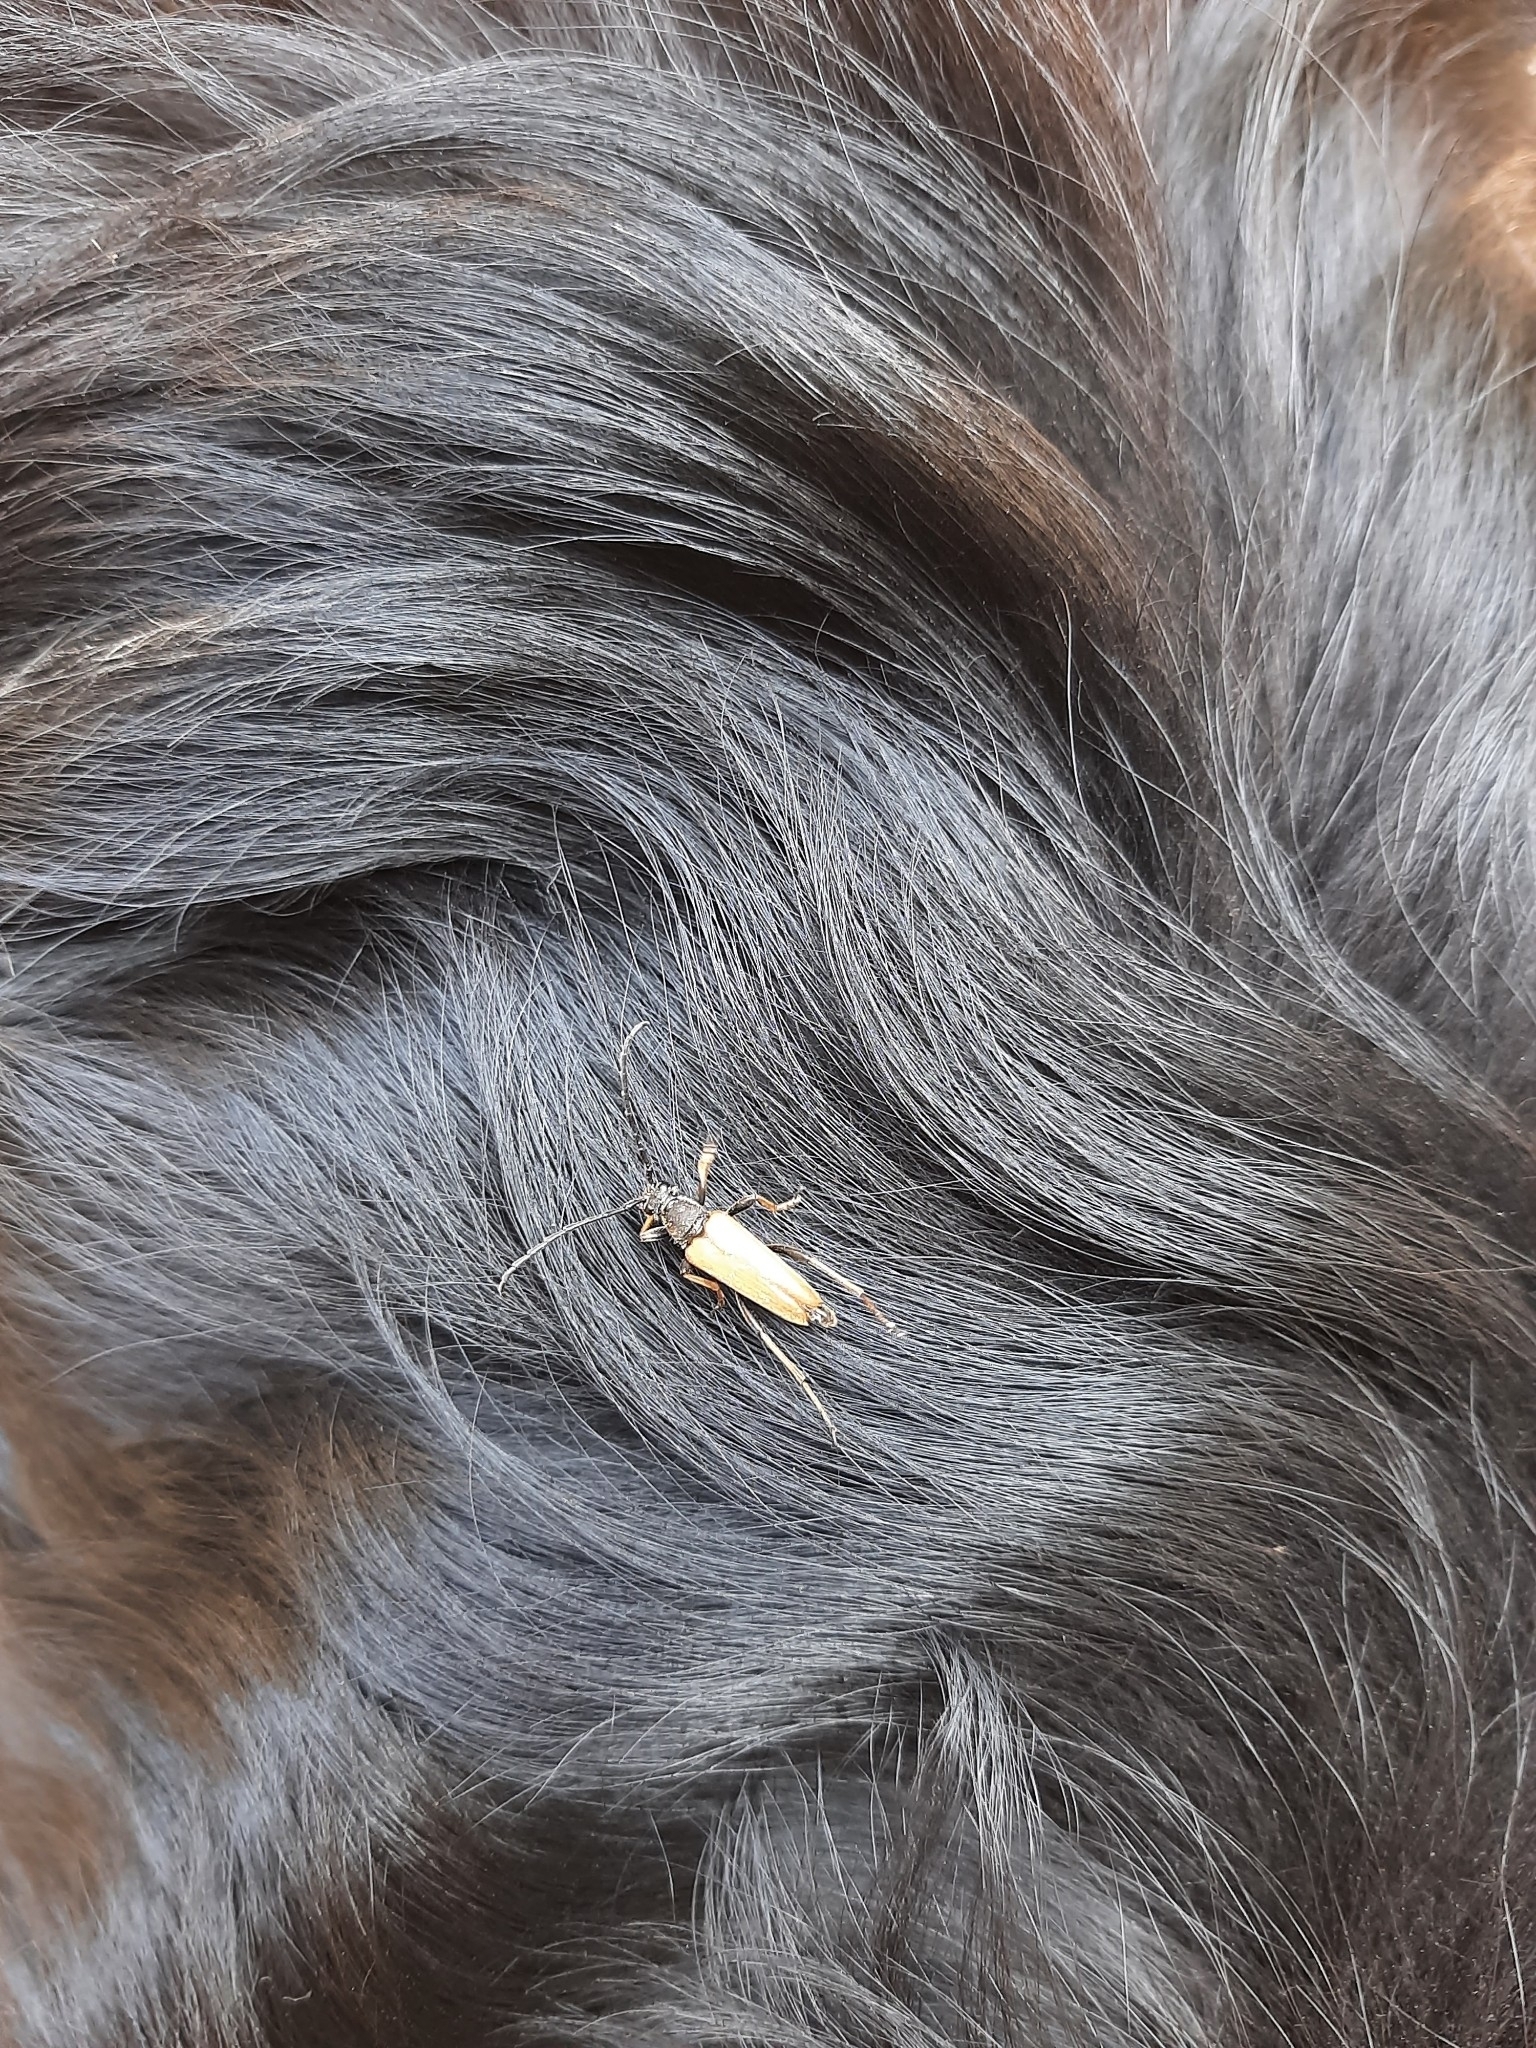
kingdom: Animalia
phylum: Arthropoda
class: Insecta
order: Coleoptera
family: Cerambycidae
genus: Stictoleptura
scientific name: Stictoleptura rubra
